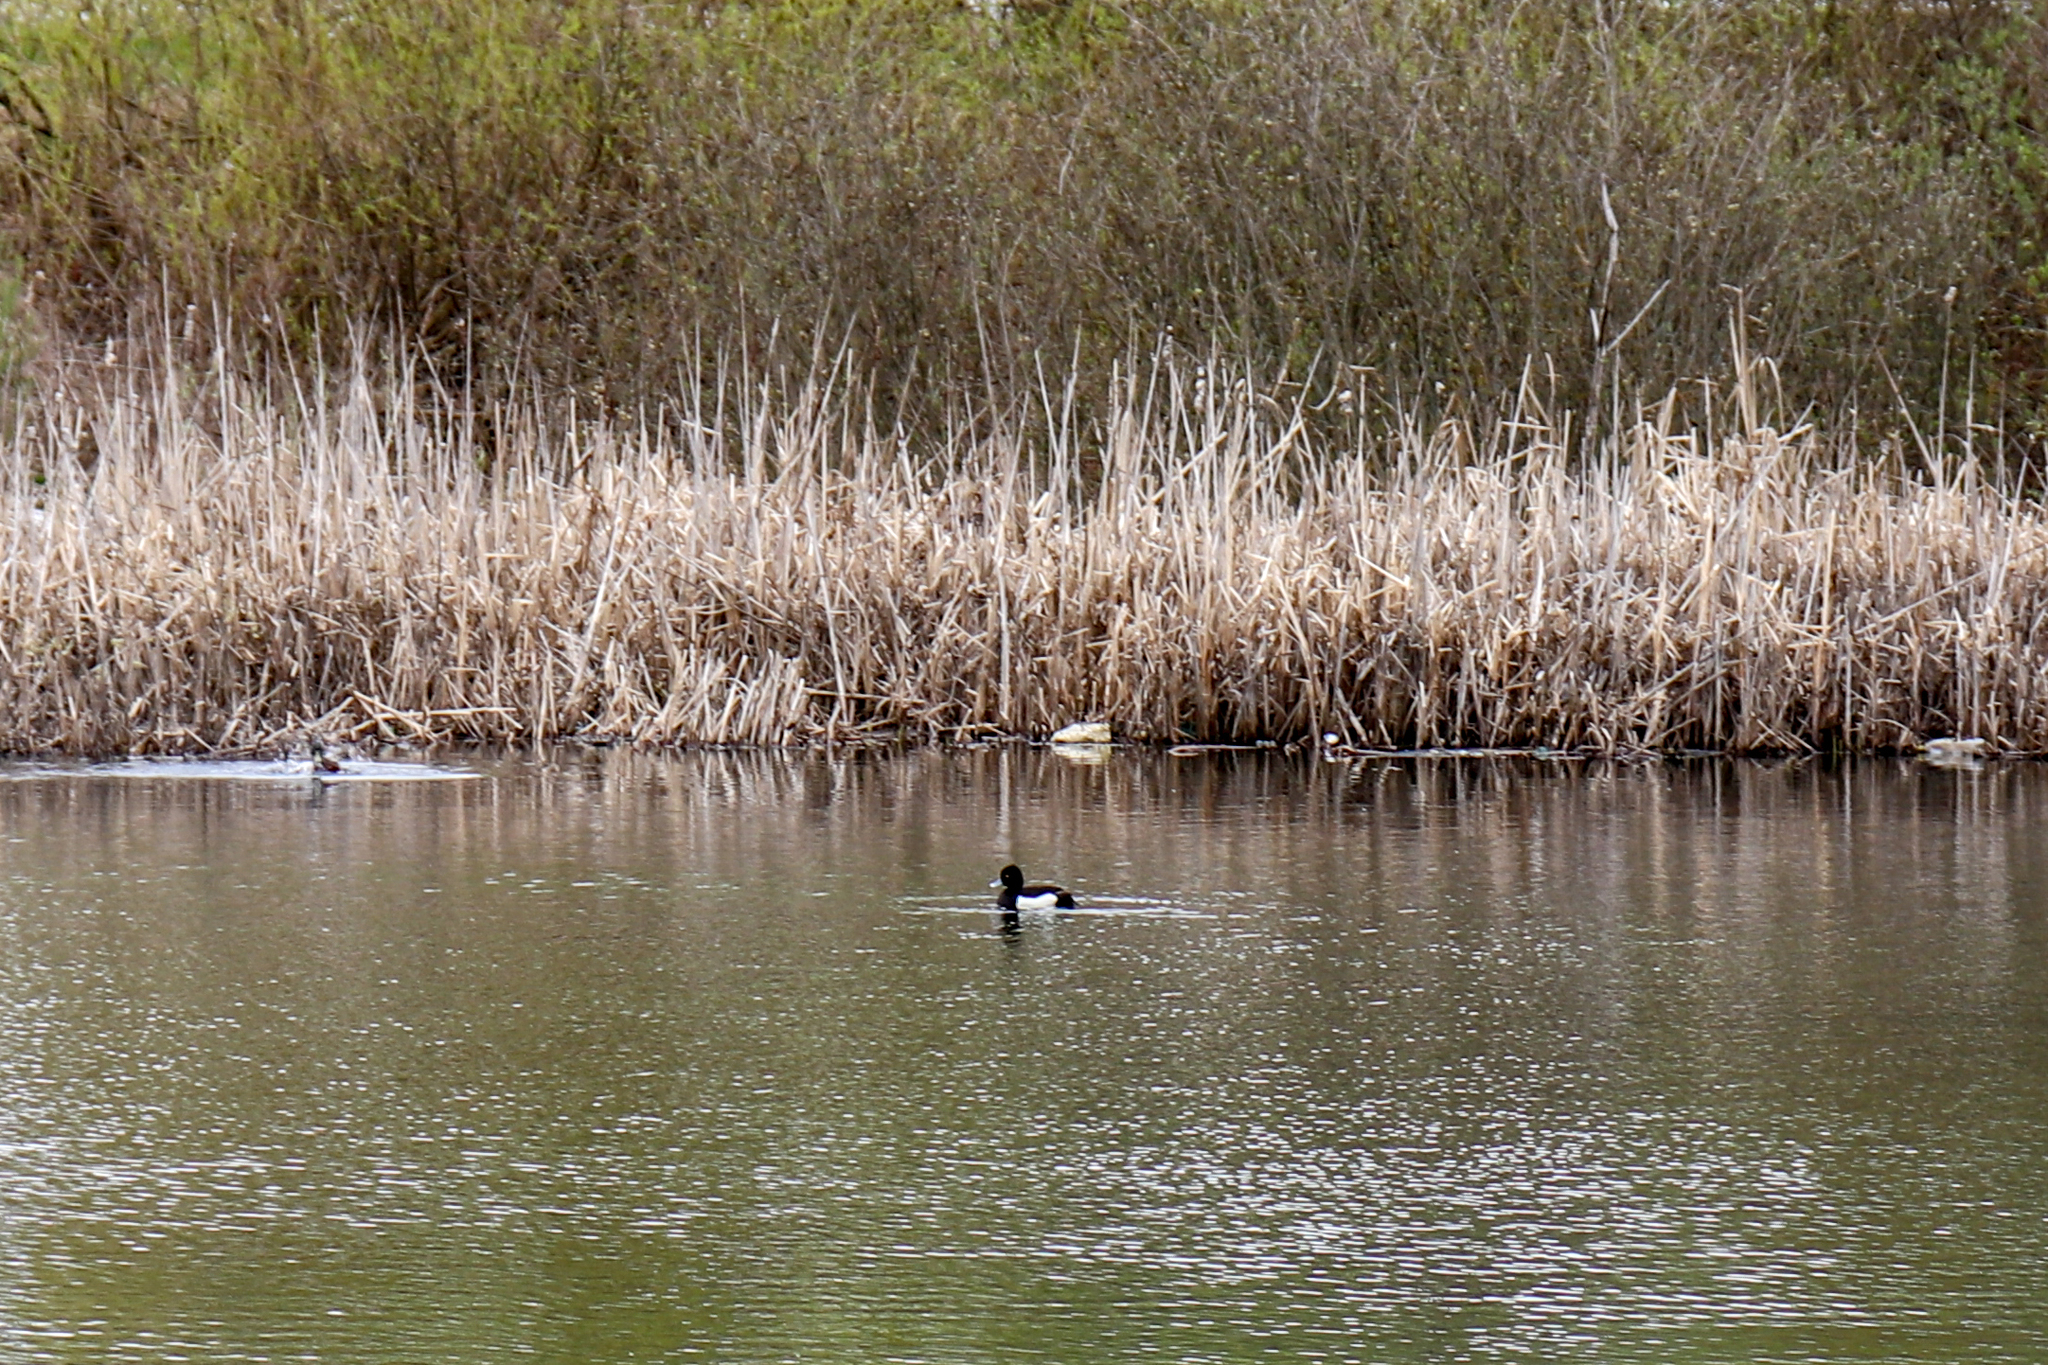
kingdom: Animalia
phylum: Chordata
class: Aves
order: Anseriformes
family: Anatidae
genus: Aythya
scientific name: Aythya fuligula
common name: Tufted duck
